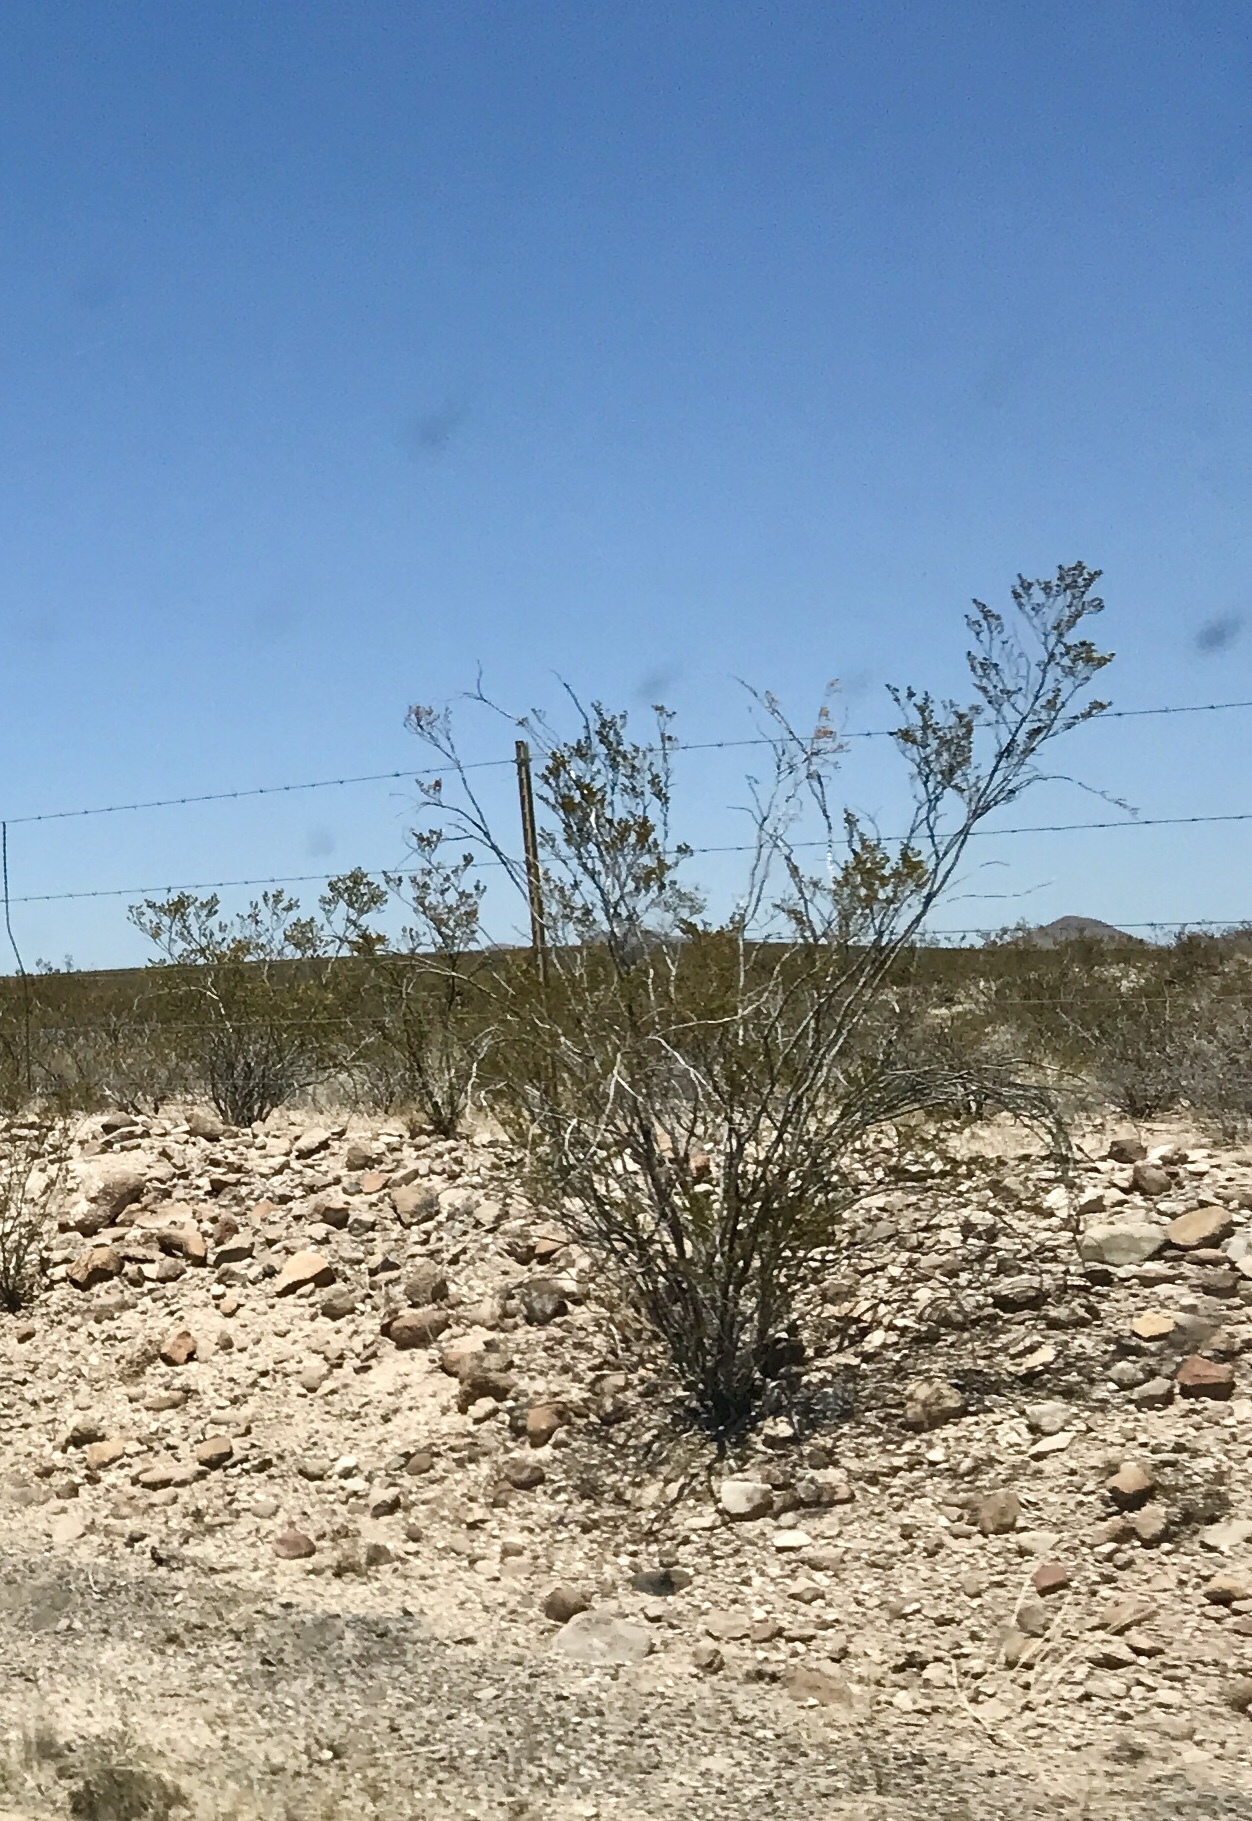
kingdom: Plantae
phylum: Tracheophyta
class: Magnoliopsida
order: Zygophyllales
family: Zygophyllaceae
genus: Larrea
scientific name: Larrea tridentata
